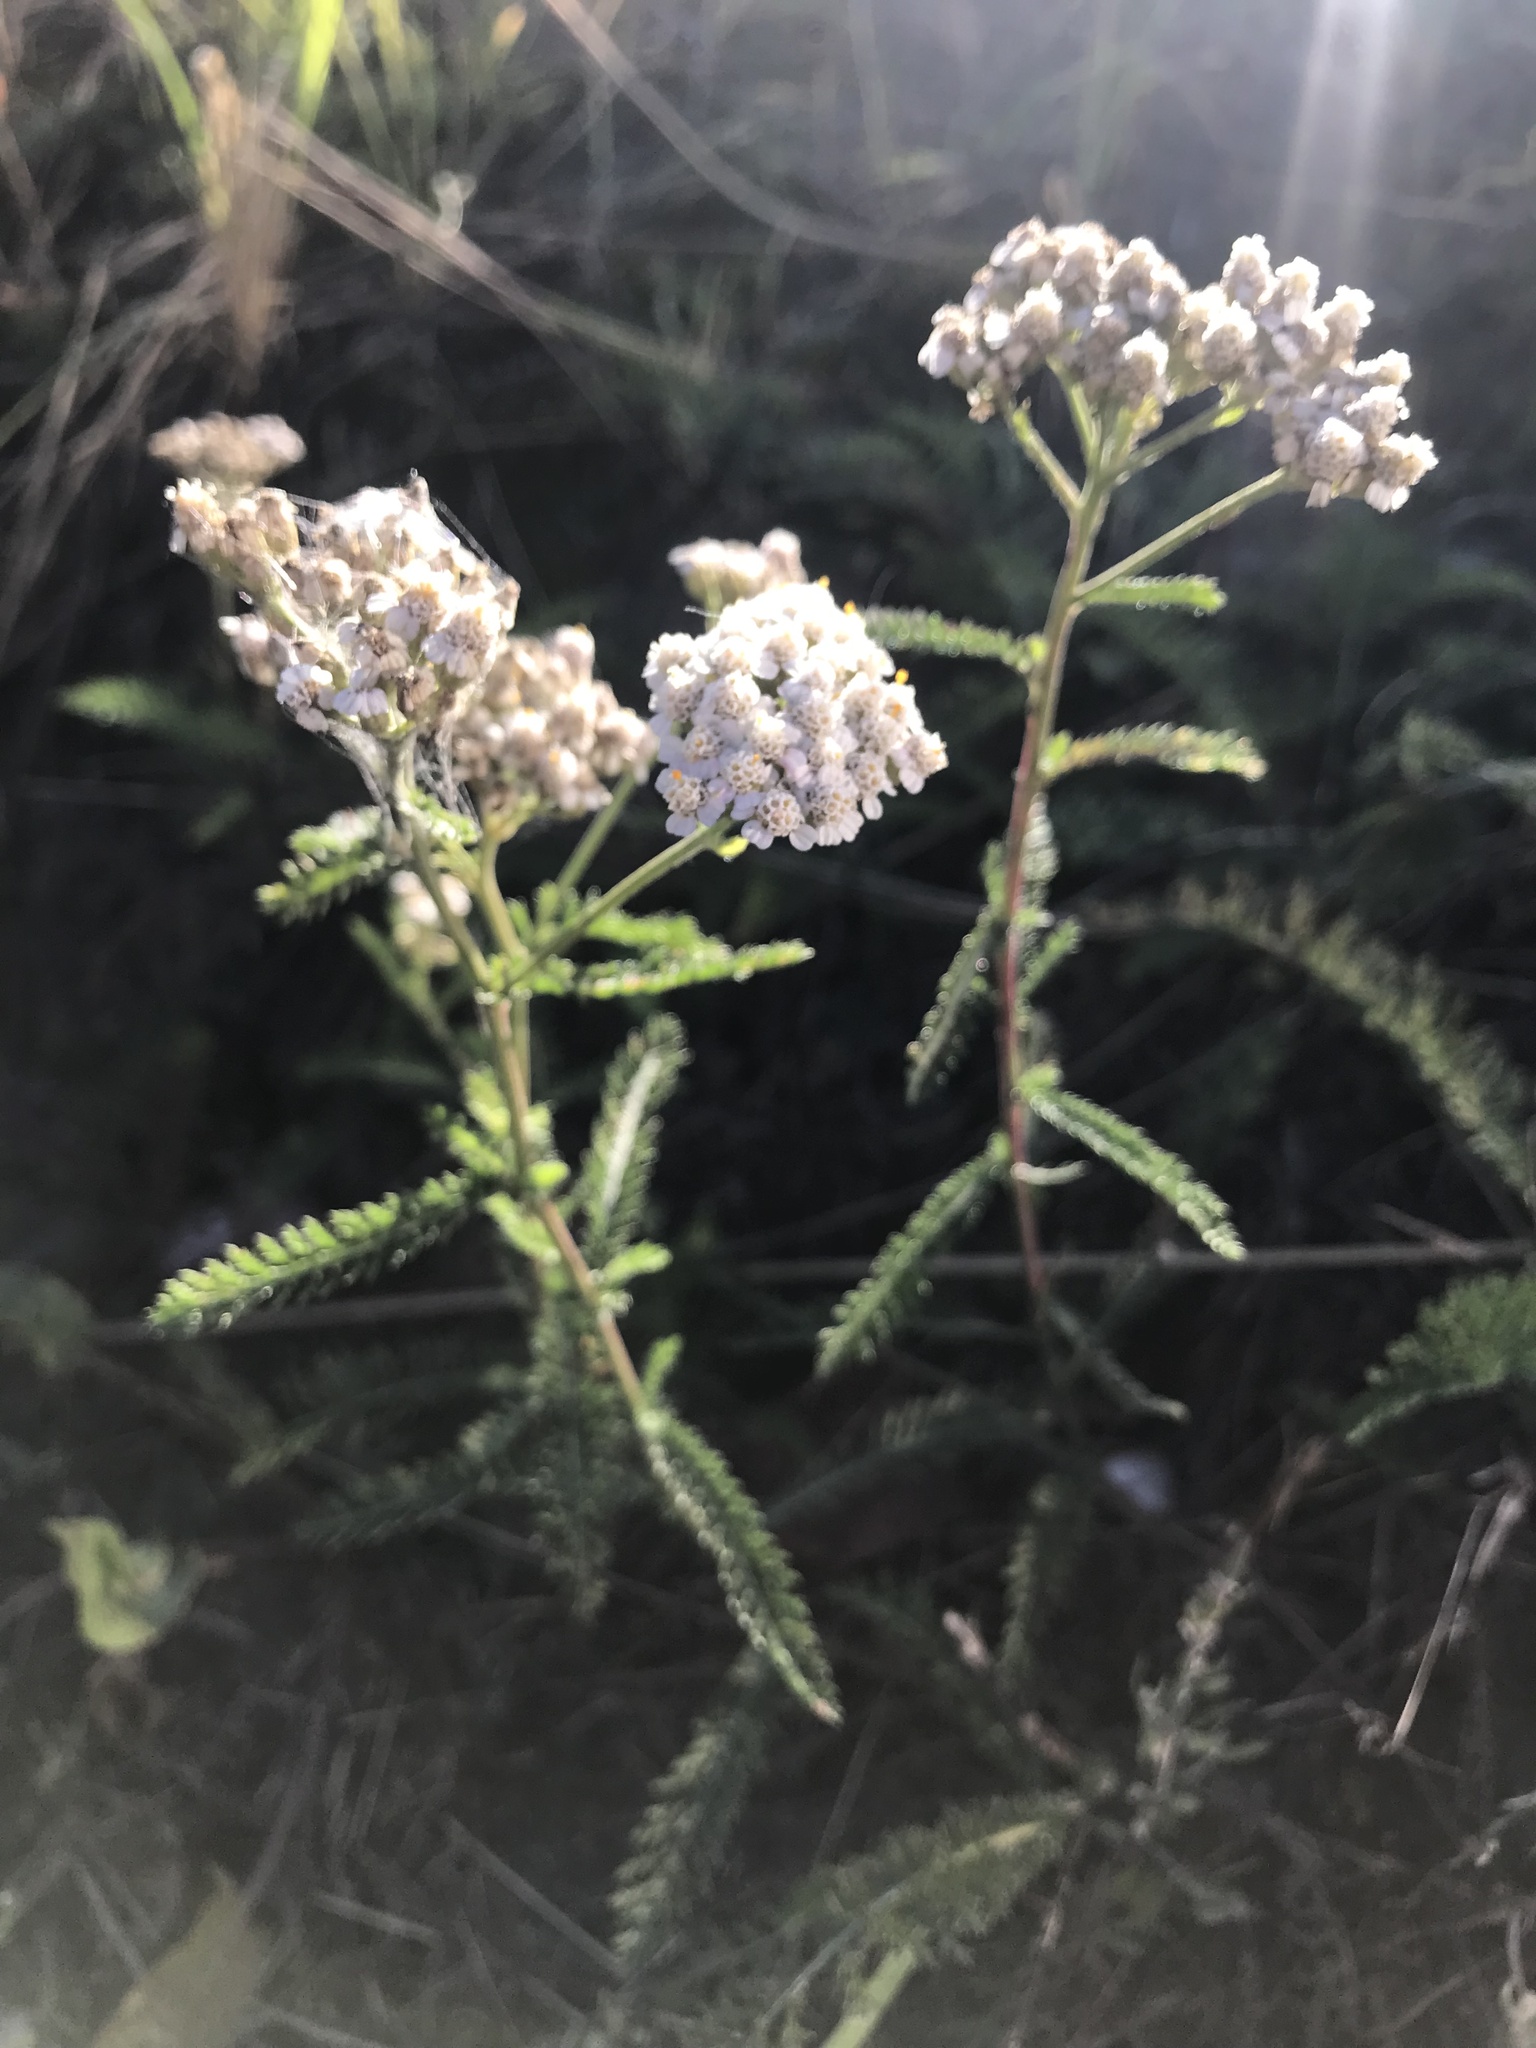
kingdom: Plantae
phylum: Tracheophyta
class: Magnoliopsida
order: Asterales
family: Asteraceae
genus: Achillea
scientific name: Achillea millefolium
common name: Yarrow
